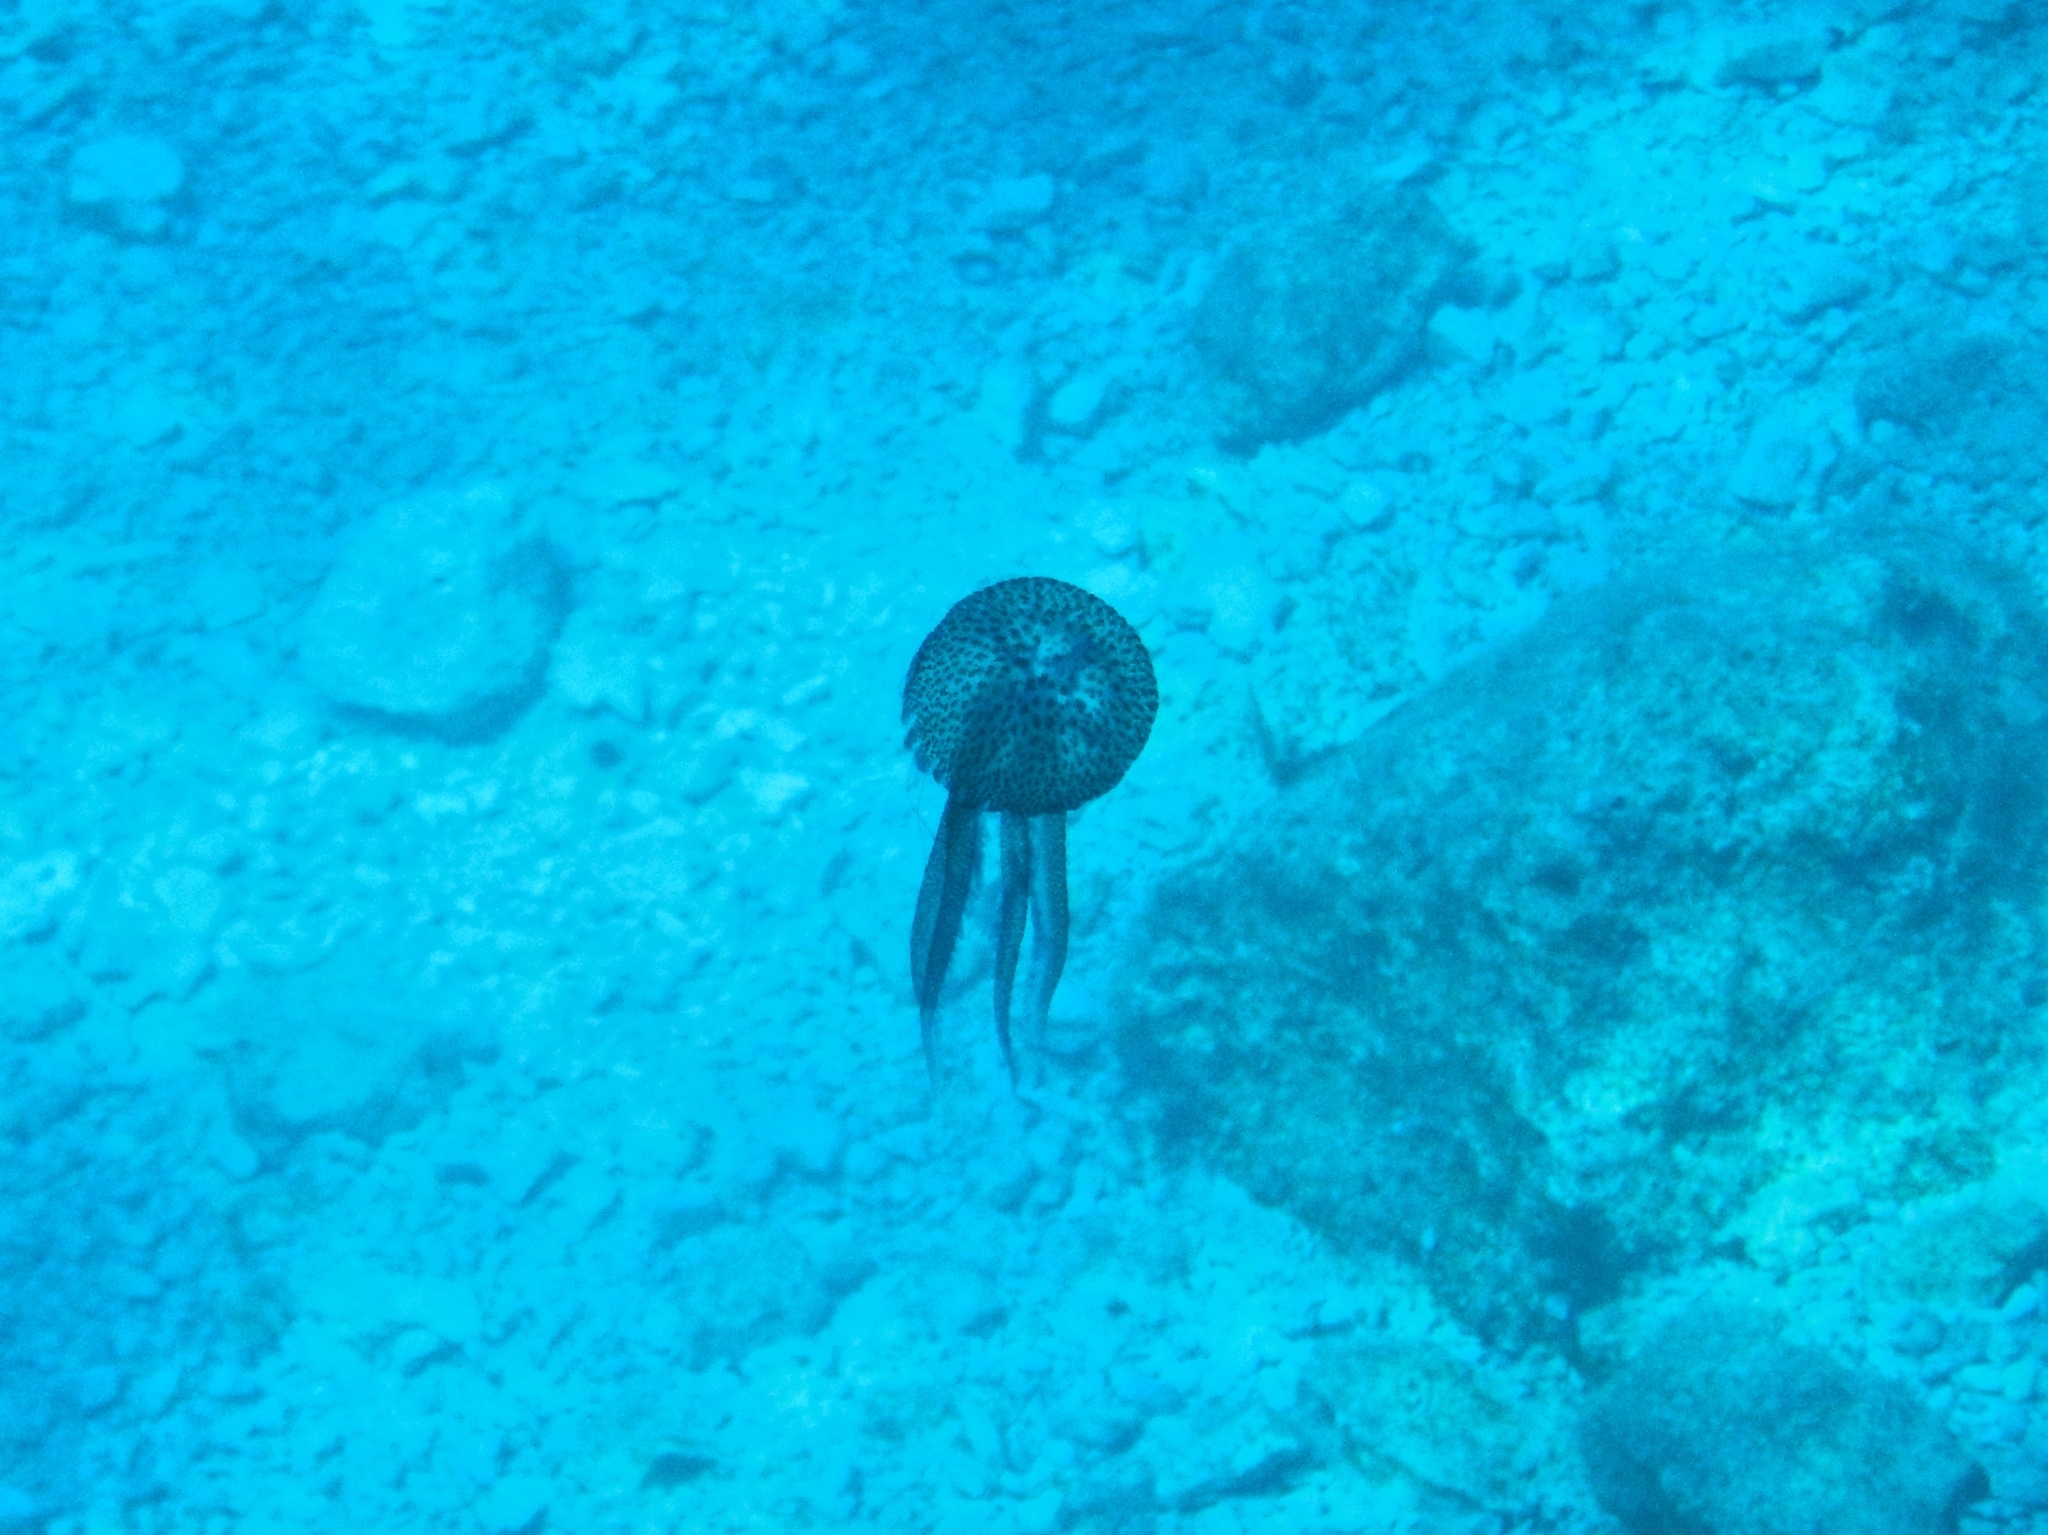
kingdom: Animalia
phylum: Cnidaria
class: Scyphozoa
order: Semaeostomeae
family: Pelagiidae
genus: Pelagia
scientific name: Pelagia noctiluca
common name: Mauve stinger
